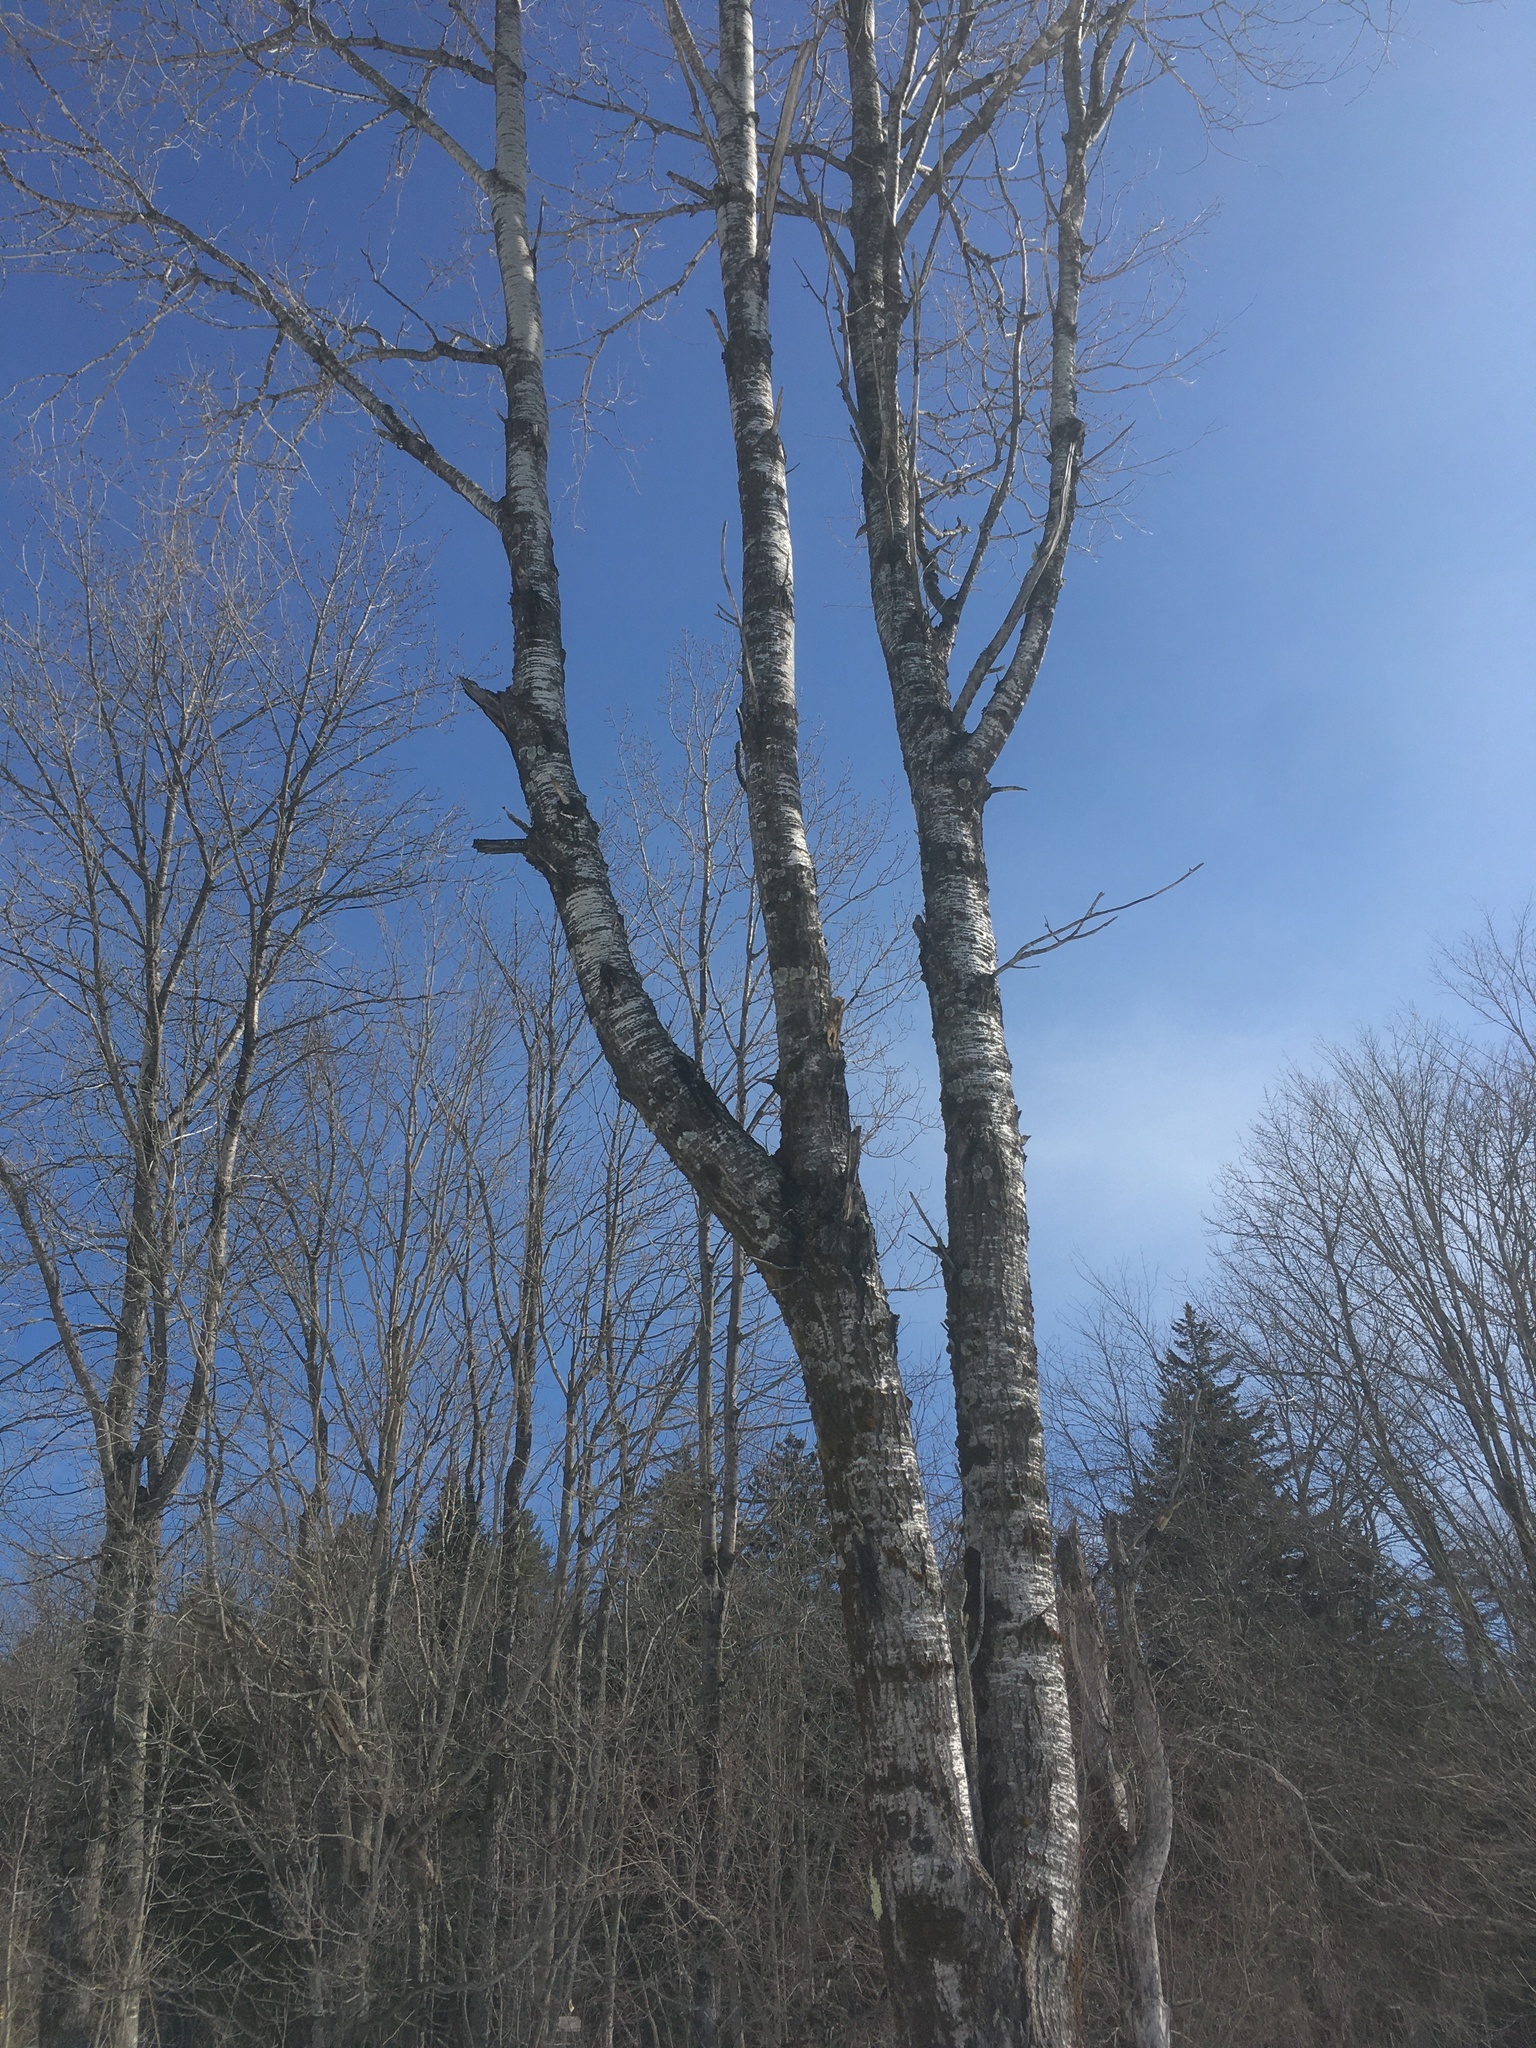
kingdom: Plantae
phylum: Tracheophyta
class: Magnoliopsida
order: Malpighiales
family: Salicaceae
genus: Populus
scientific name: Populus tremuloides
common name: Quaking aspen
